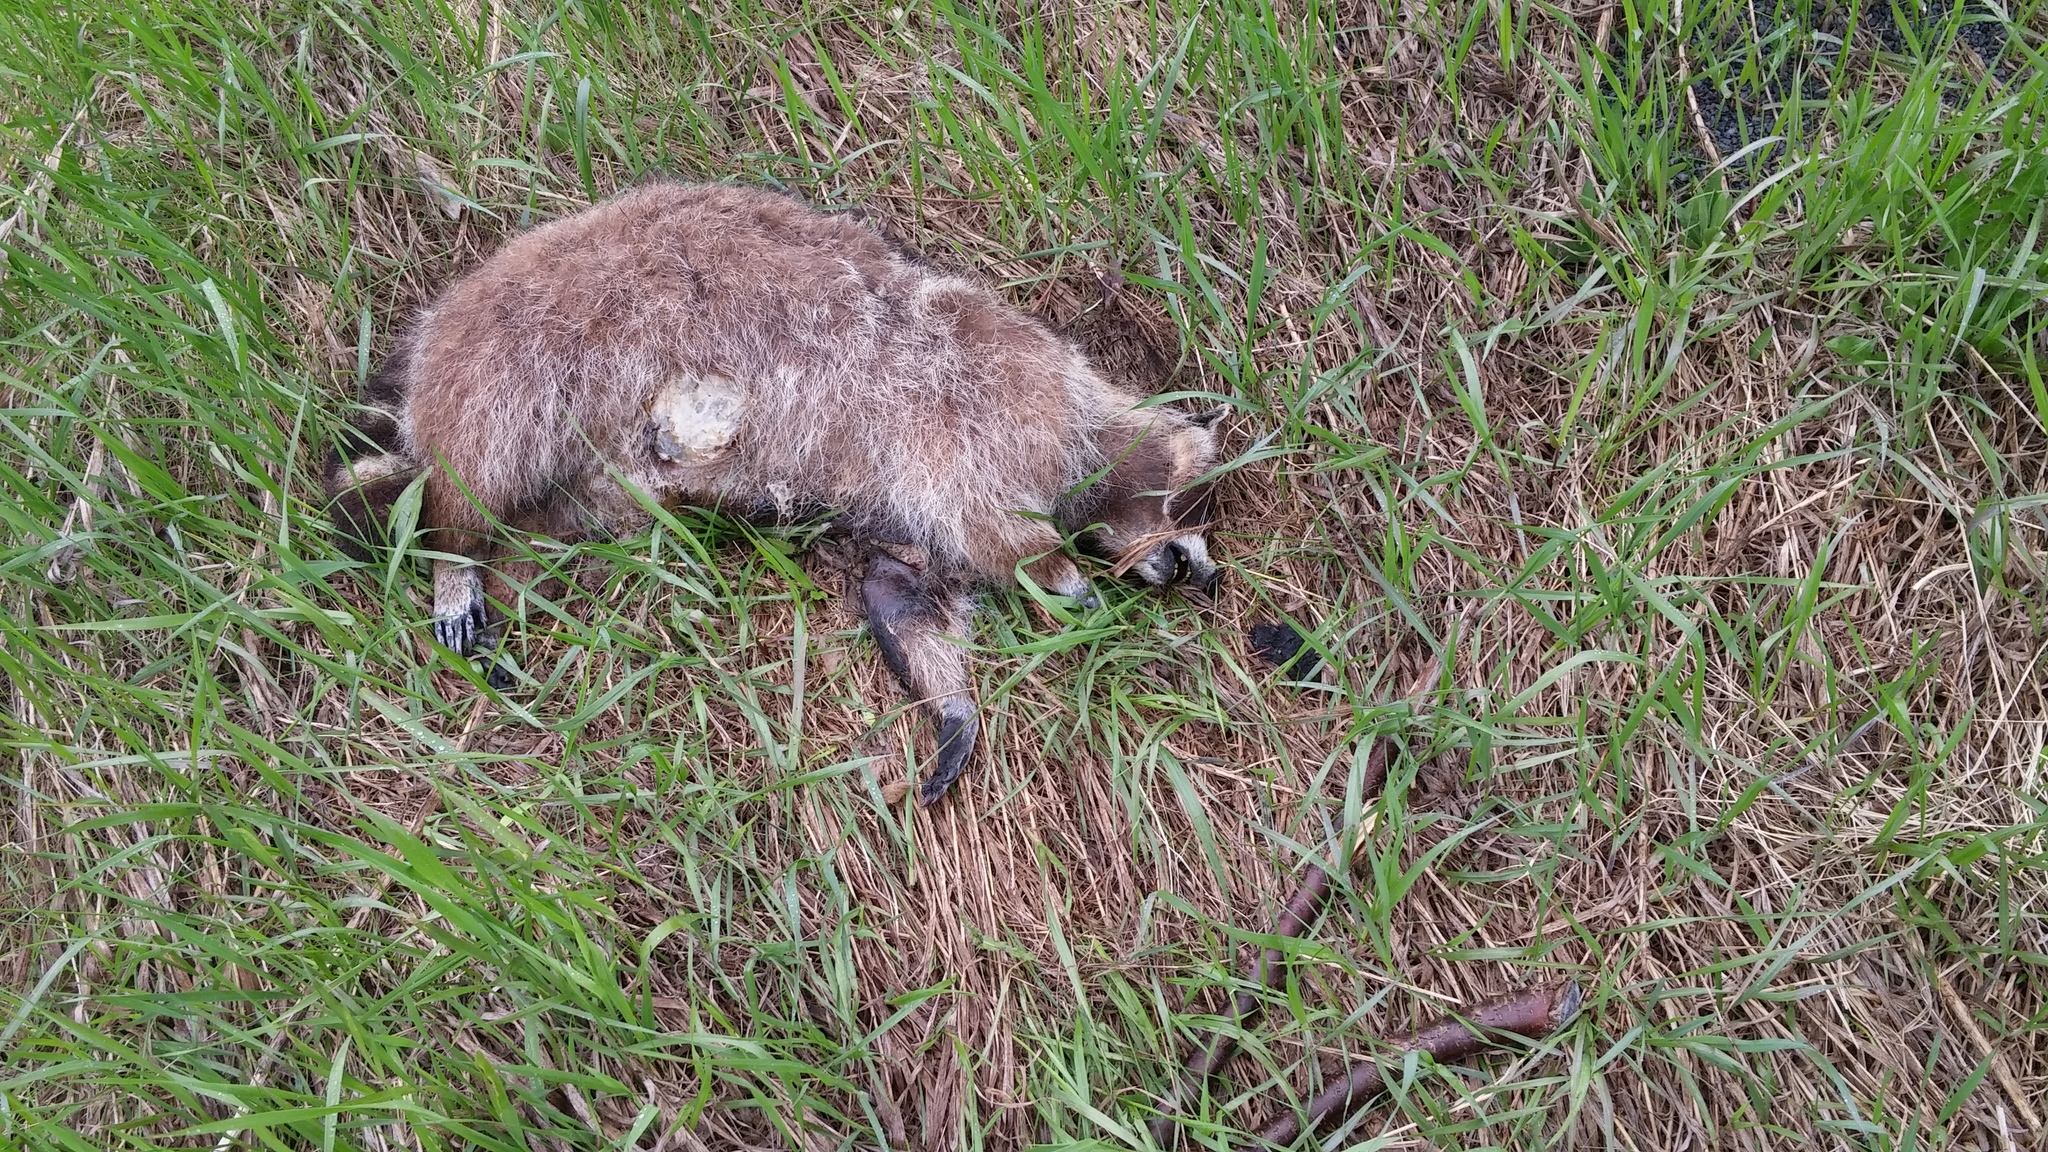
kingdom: Animalia
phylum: Chordata
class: Mammalia
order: Carnivora
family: Procyonidae
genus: Procyon
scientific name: Procyon lotor
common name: Raccoon
